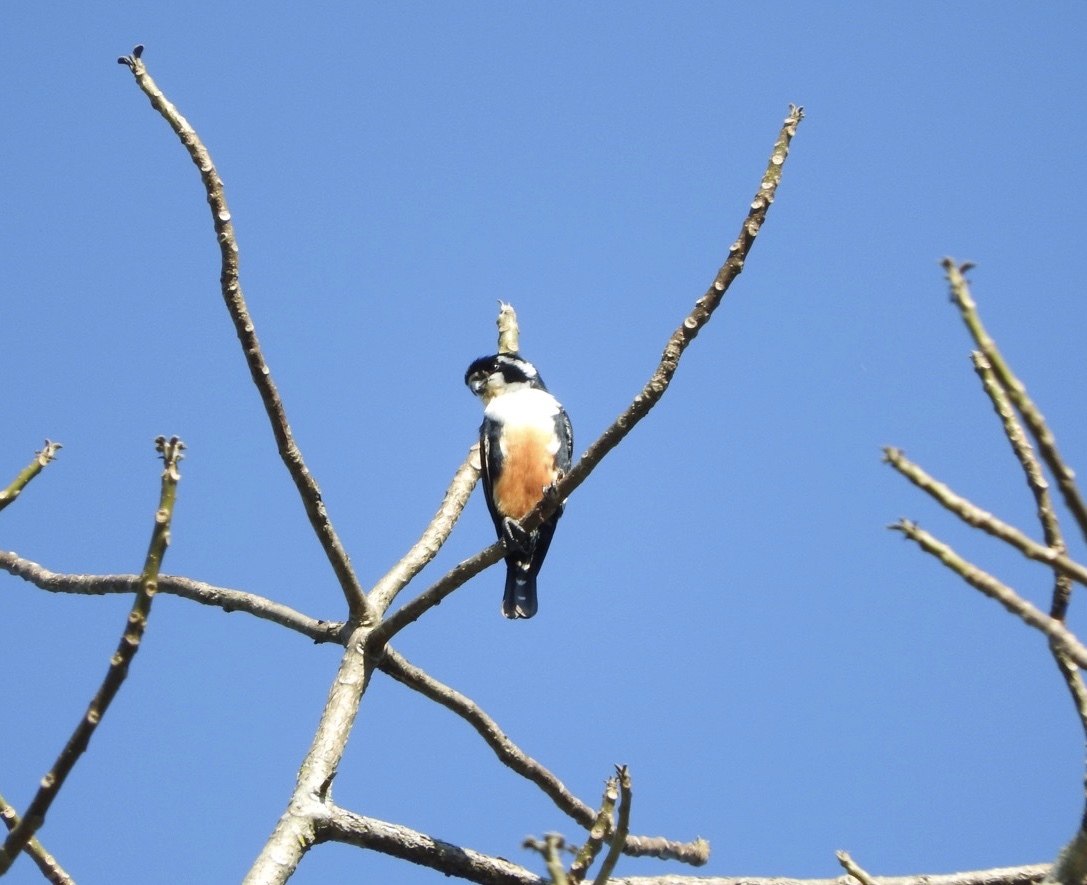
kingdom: Animalia
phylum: Chordata
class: Aves
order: Falconiformes
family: Falconidae
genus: Microhierax
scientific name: Microhierax fringillarius
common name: Black-thighed falconet
